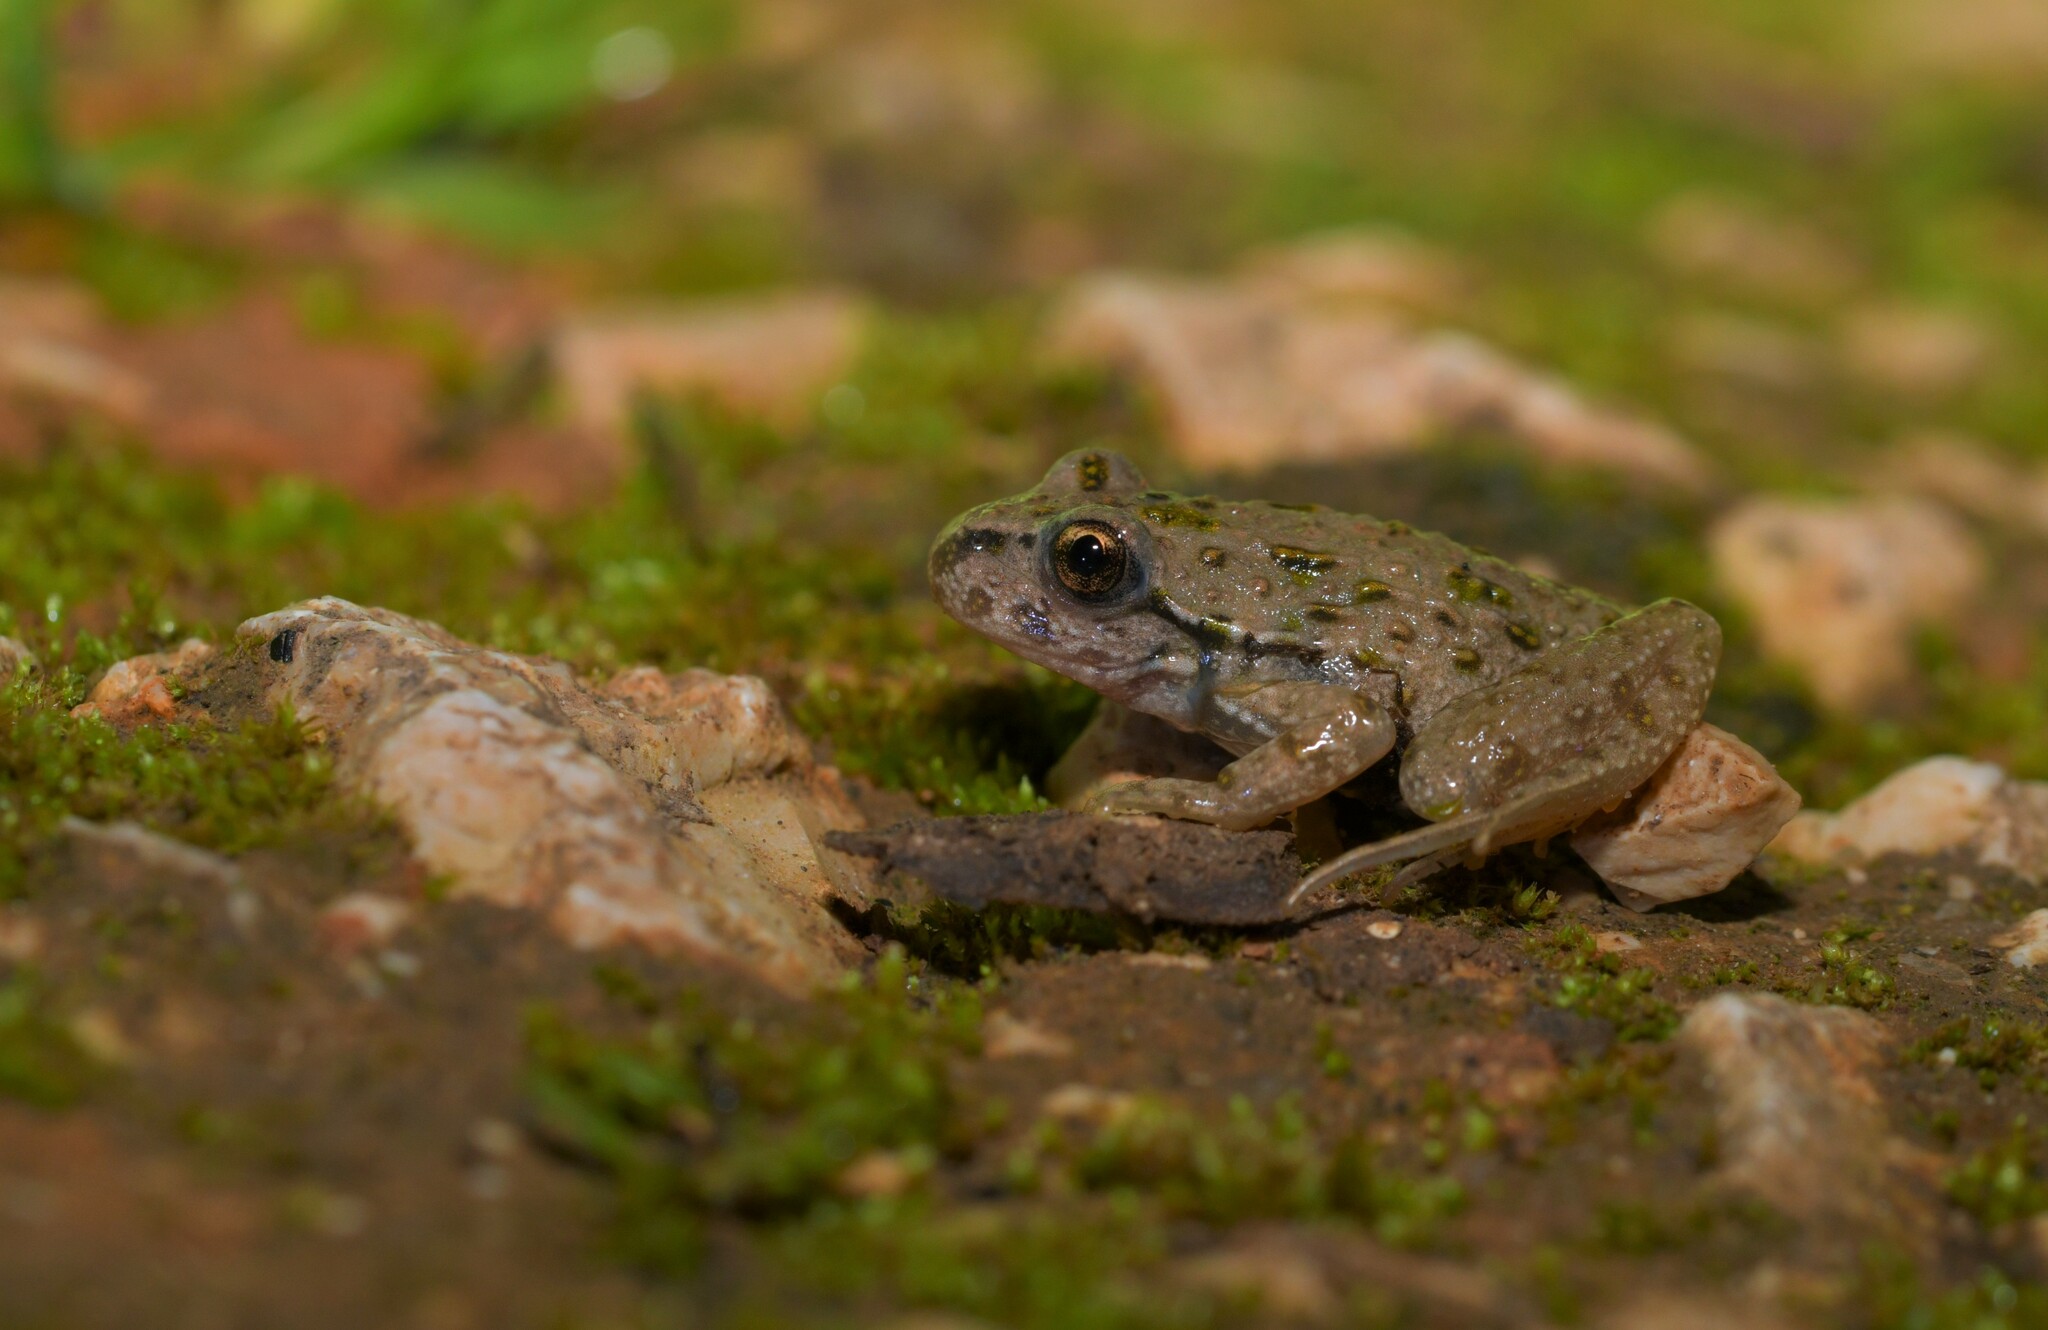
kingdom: Animalia
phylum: Chordata
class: Amphibia
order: Anura
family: Pelodytidae
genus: Pelodytes
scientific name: Pelodytes atlanticus
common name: Lusitanian parsley frog
